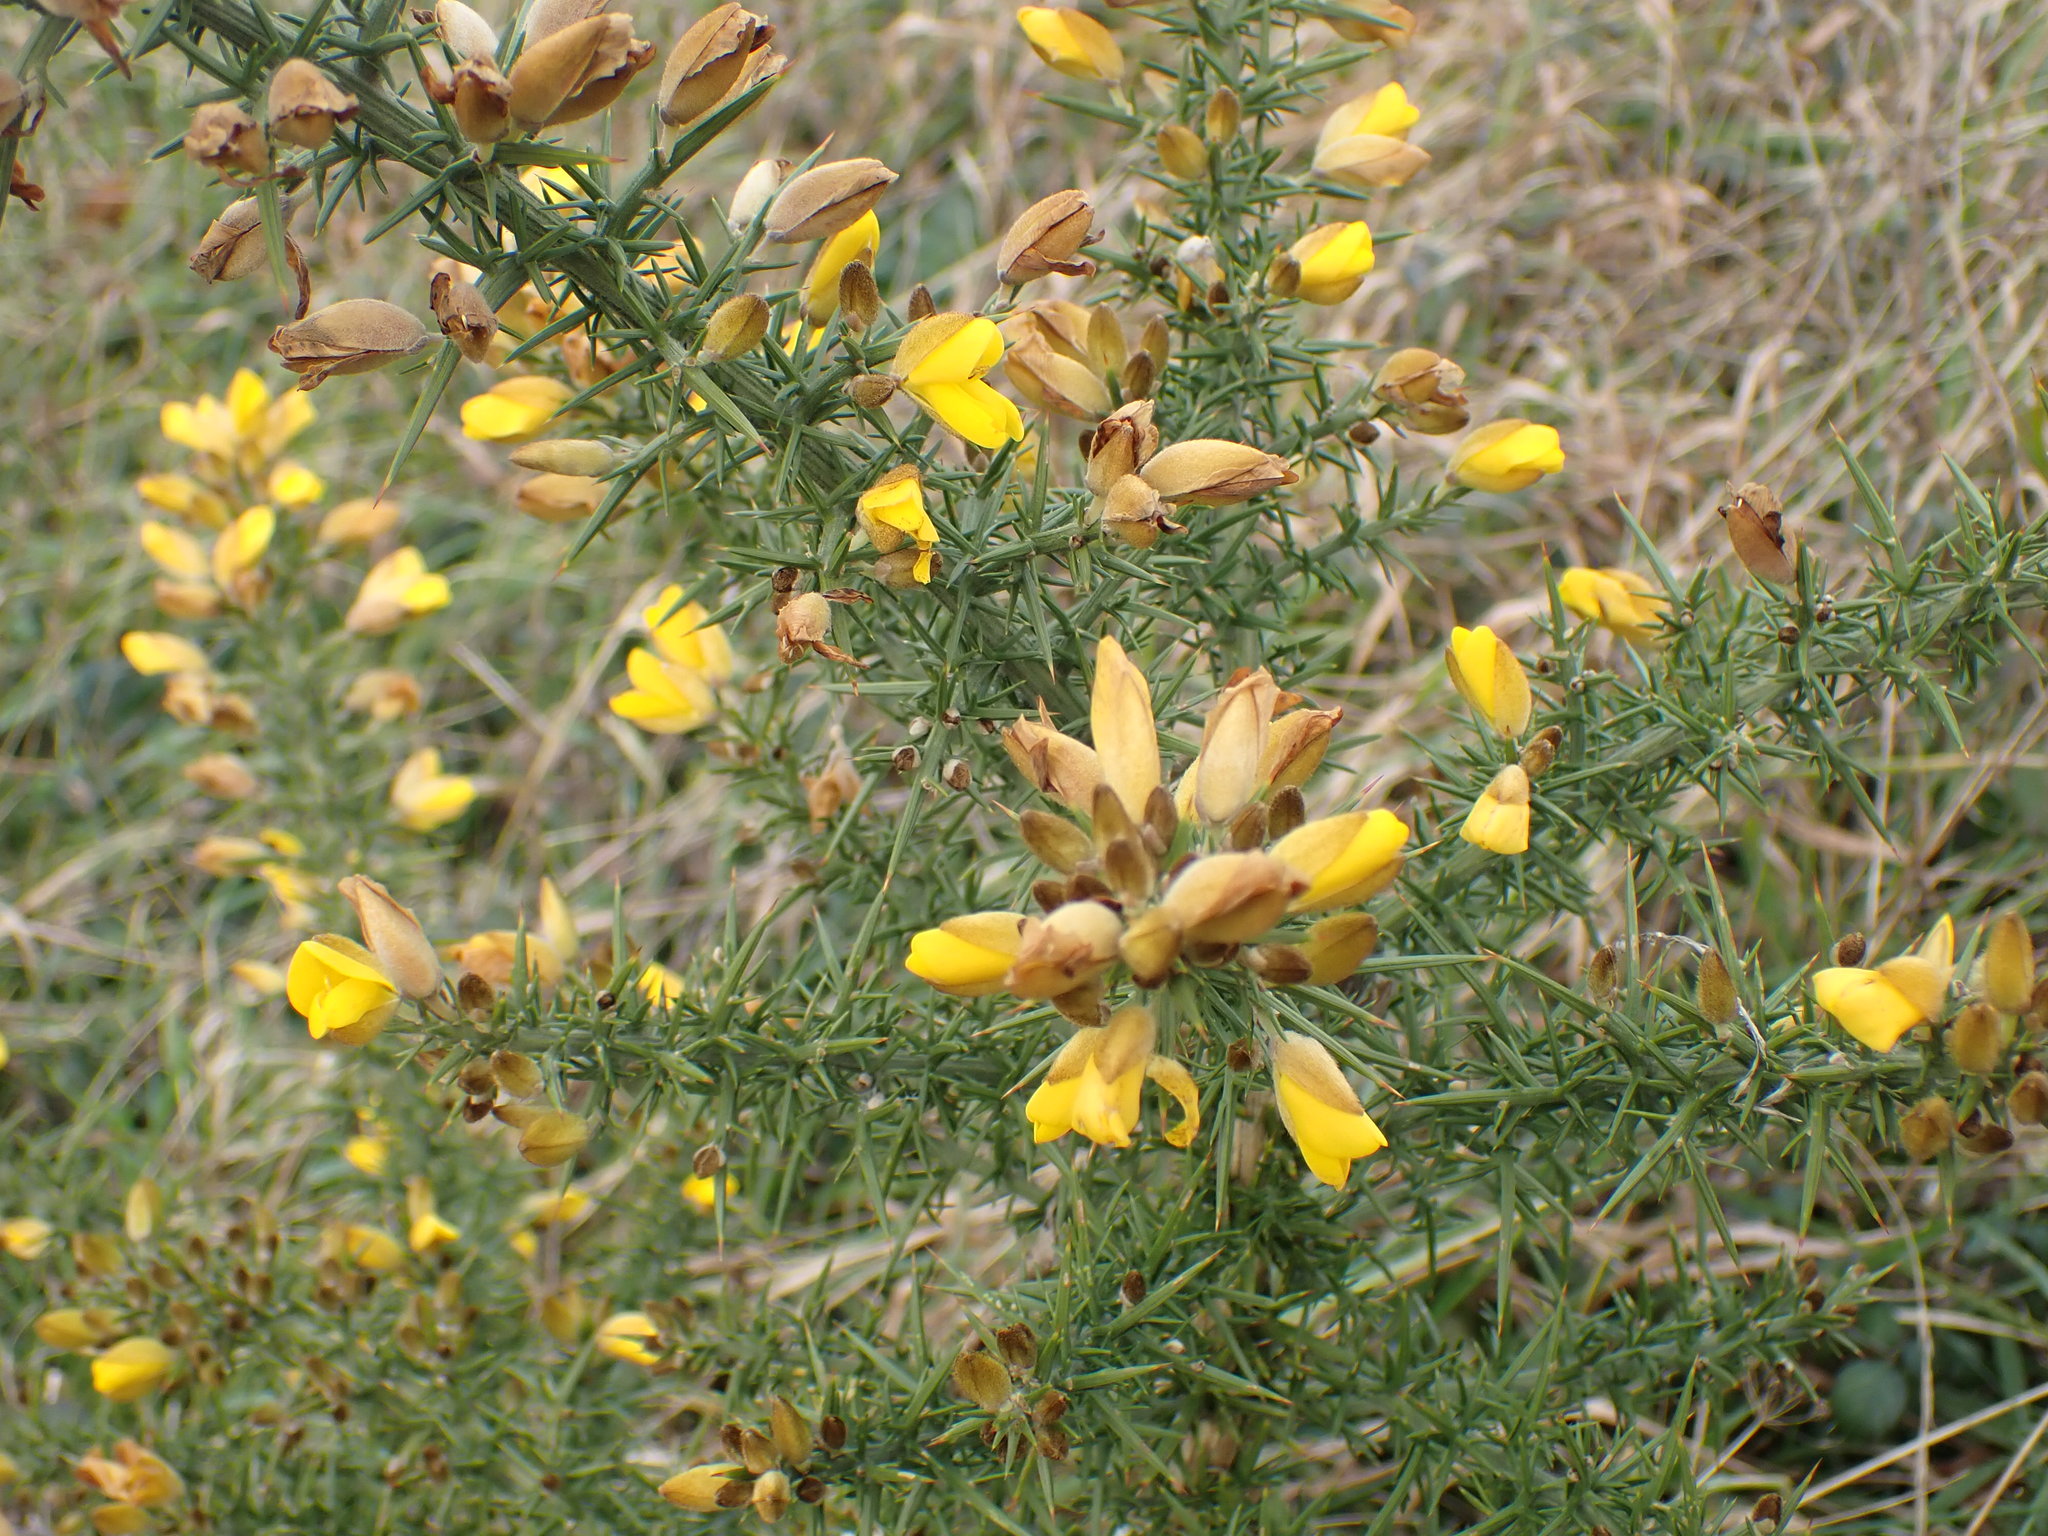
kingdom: Plantae
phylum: Tracheophyta
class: Magnoliopsida
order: Fabales
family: Fabaceae
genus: Ulex
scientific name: Ulex europaeus
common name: Common gorse
